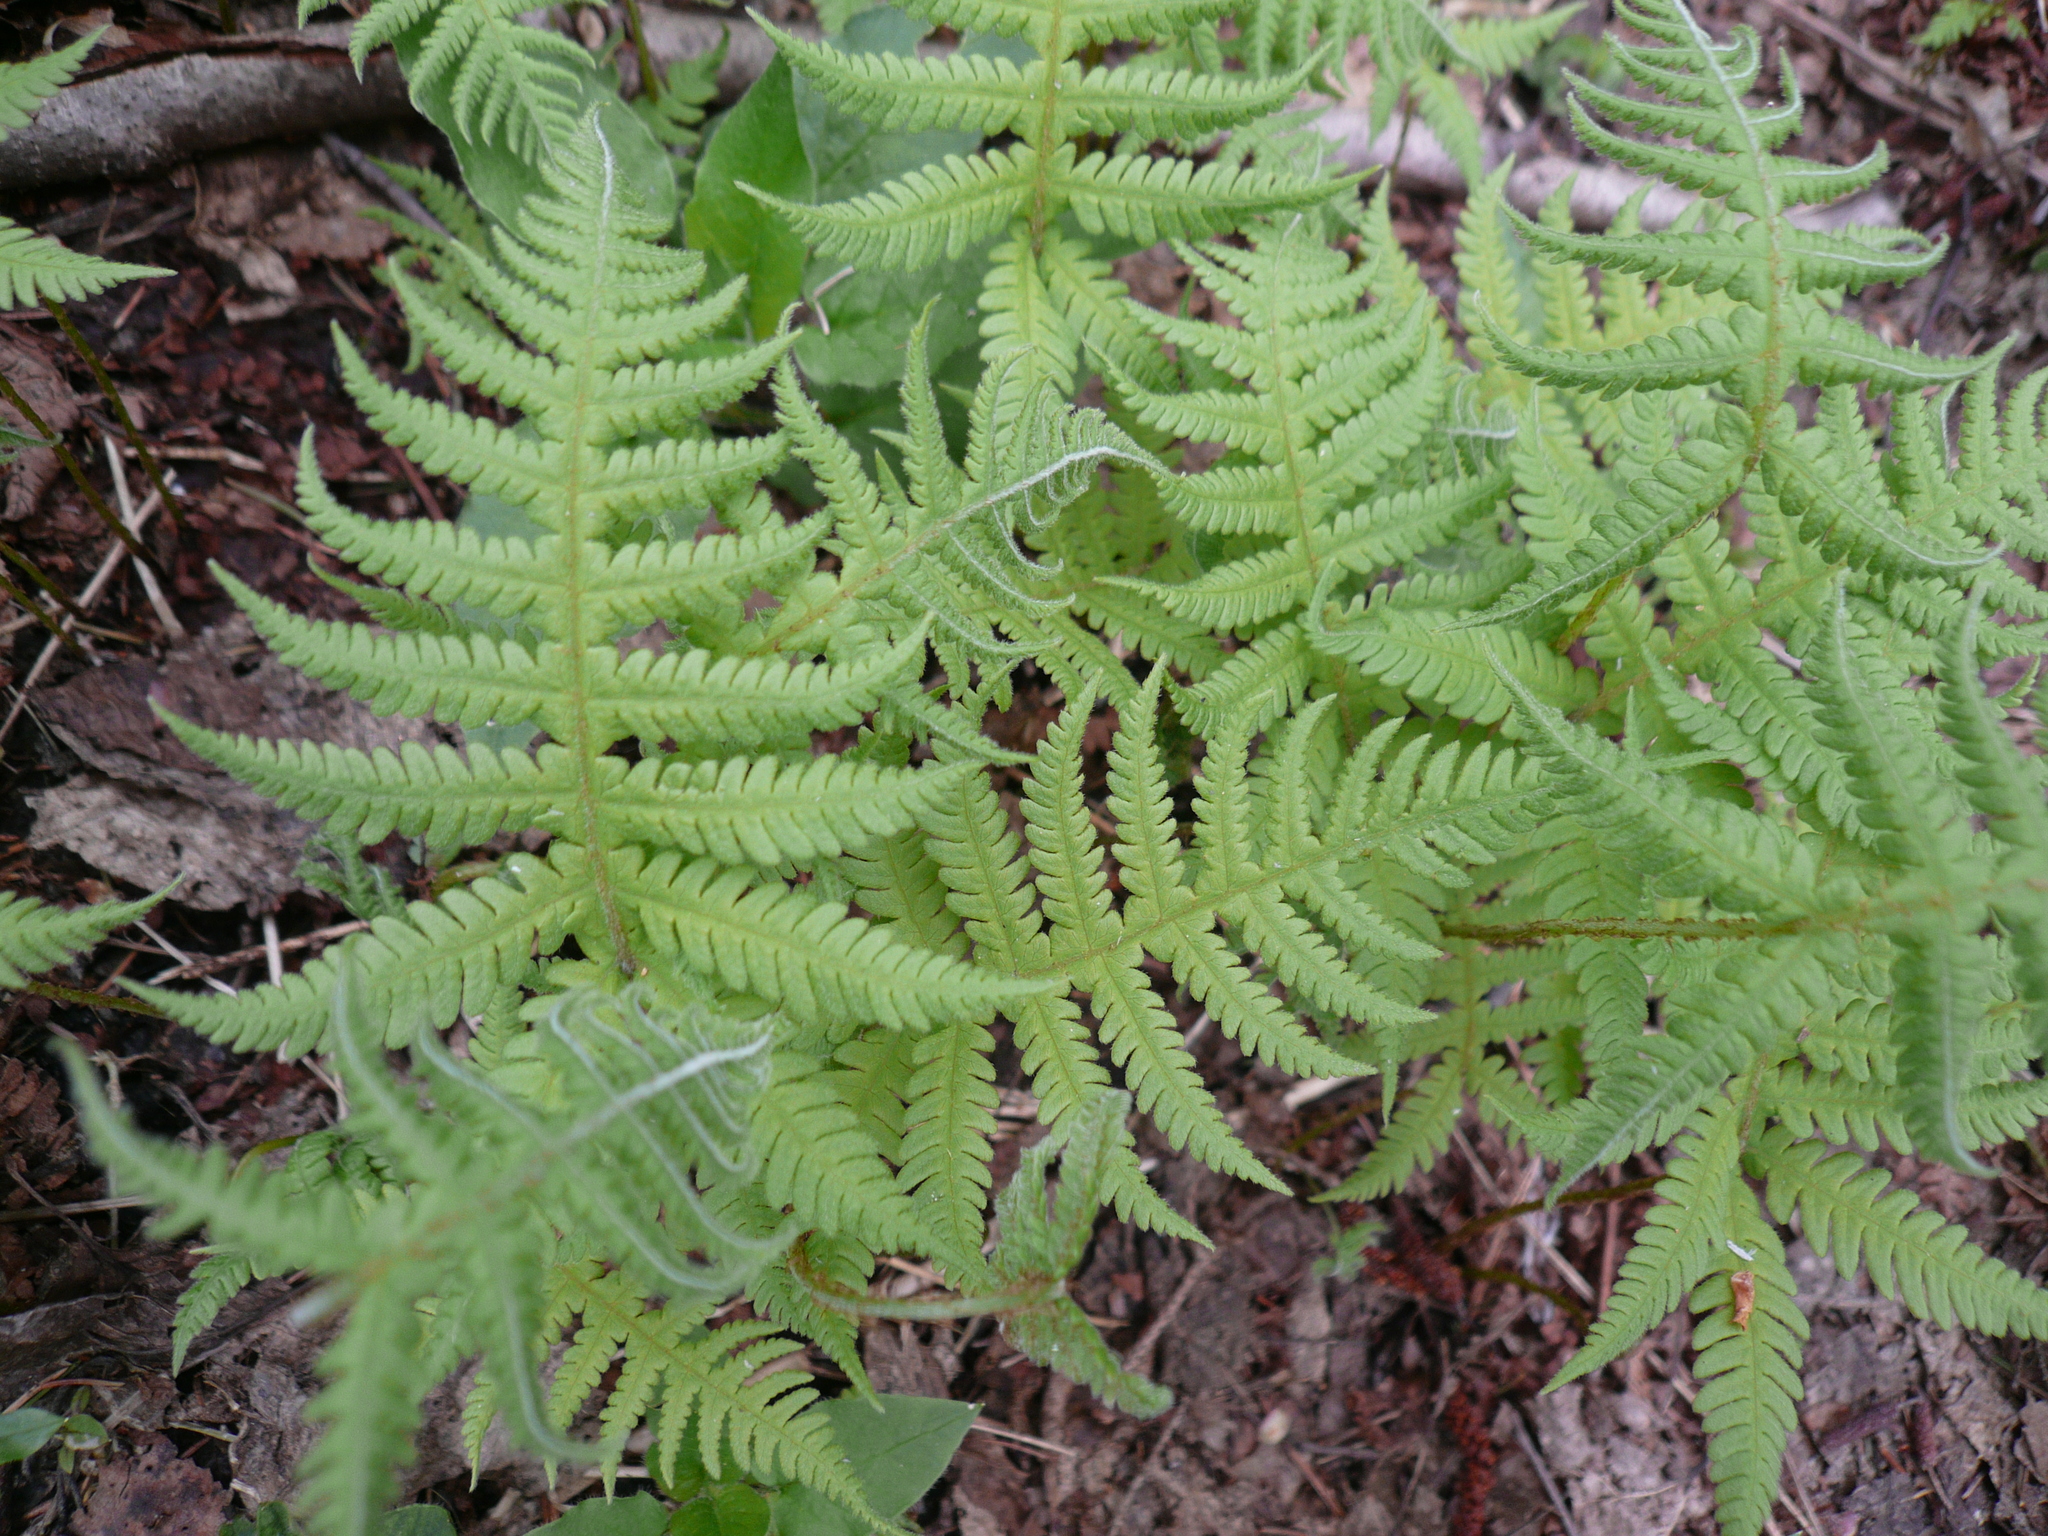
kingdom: Plantae
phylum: Tracheophyta
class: Polypodiopsida
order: Polypodiales
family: Thelypteridaceae
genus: Phegopteris
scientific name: Phegopteris connectilis
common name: Beech fern
